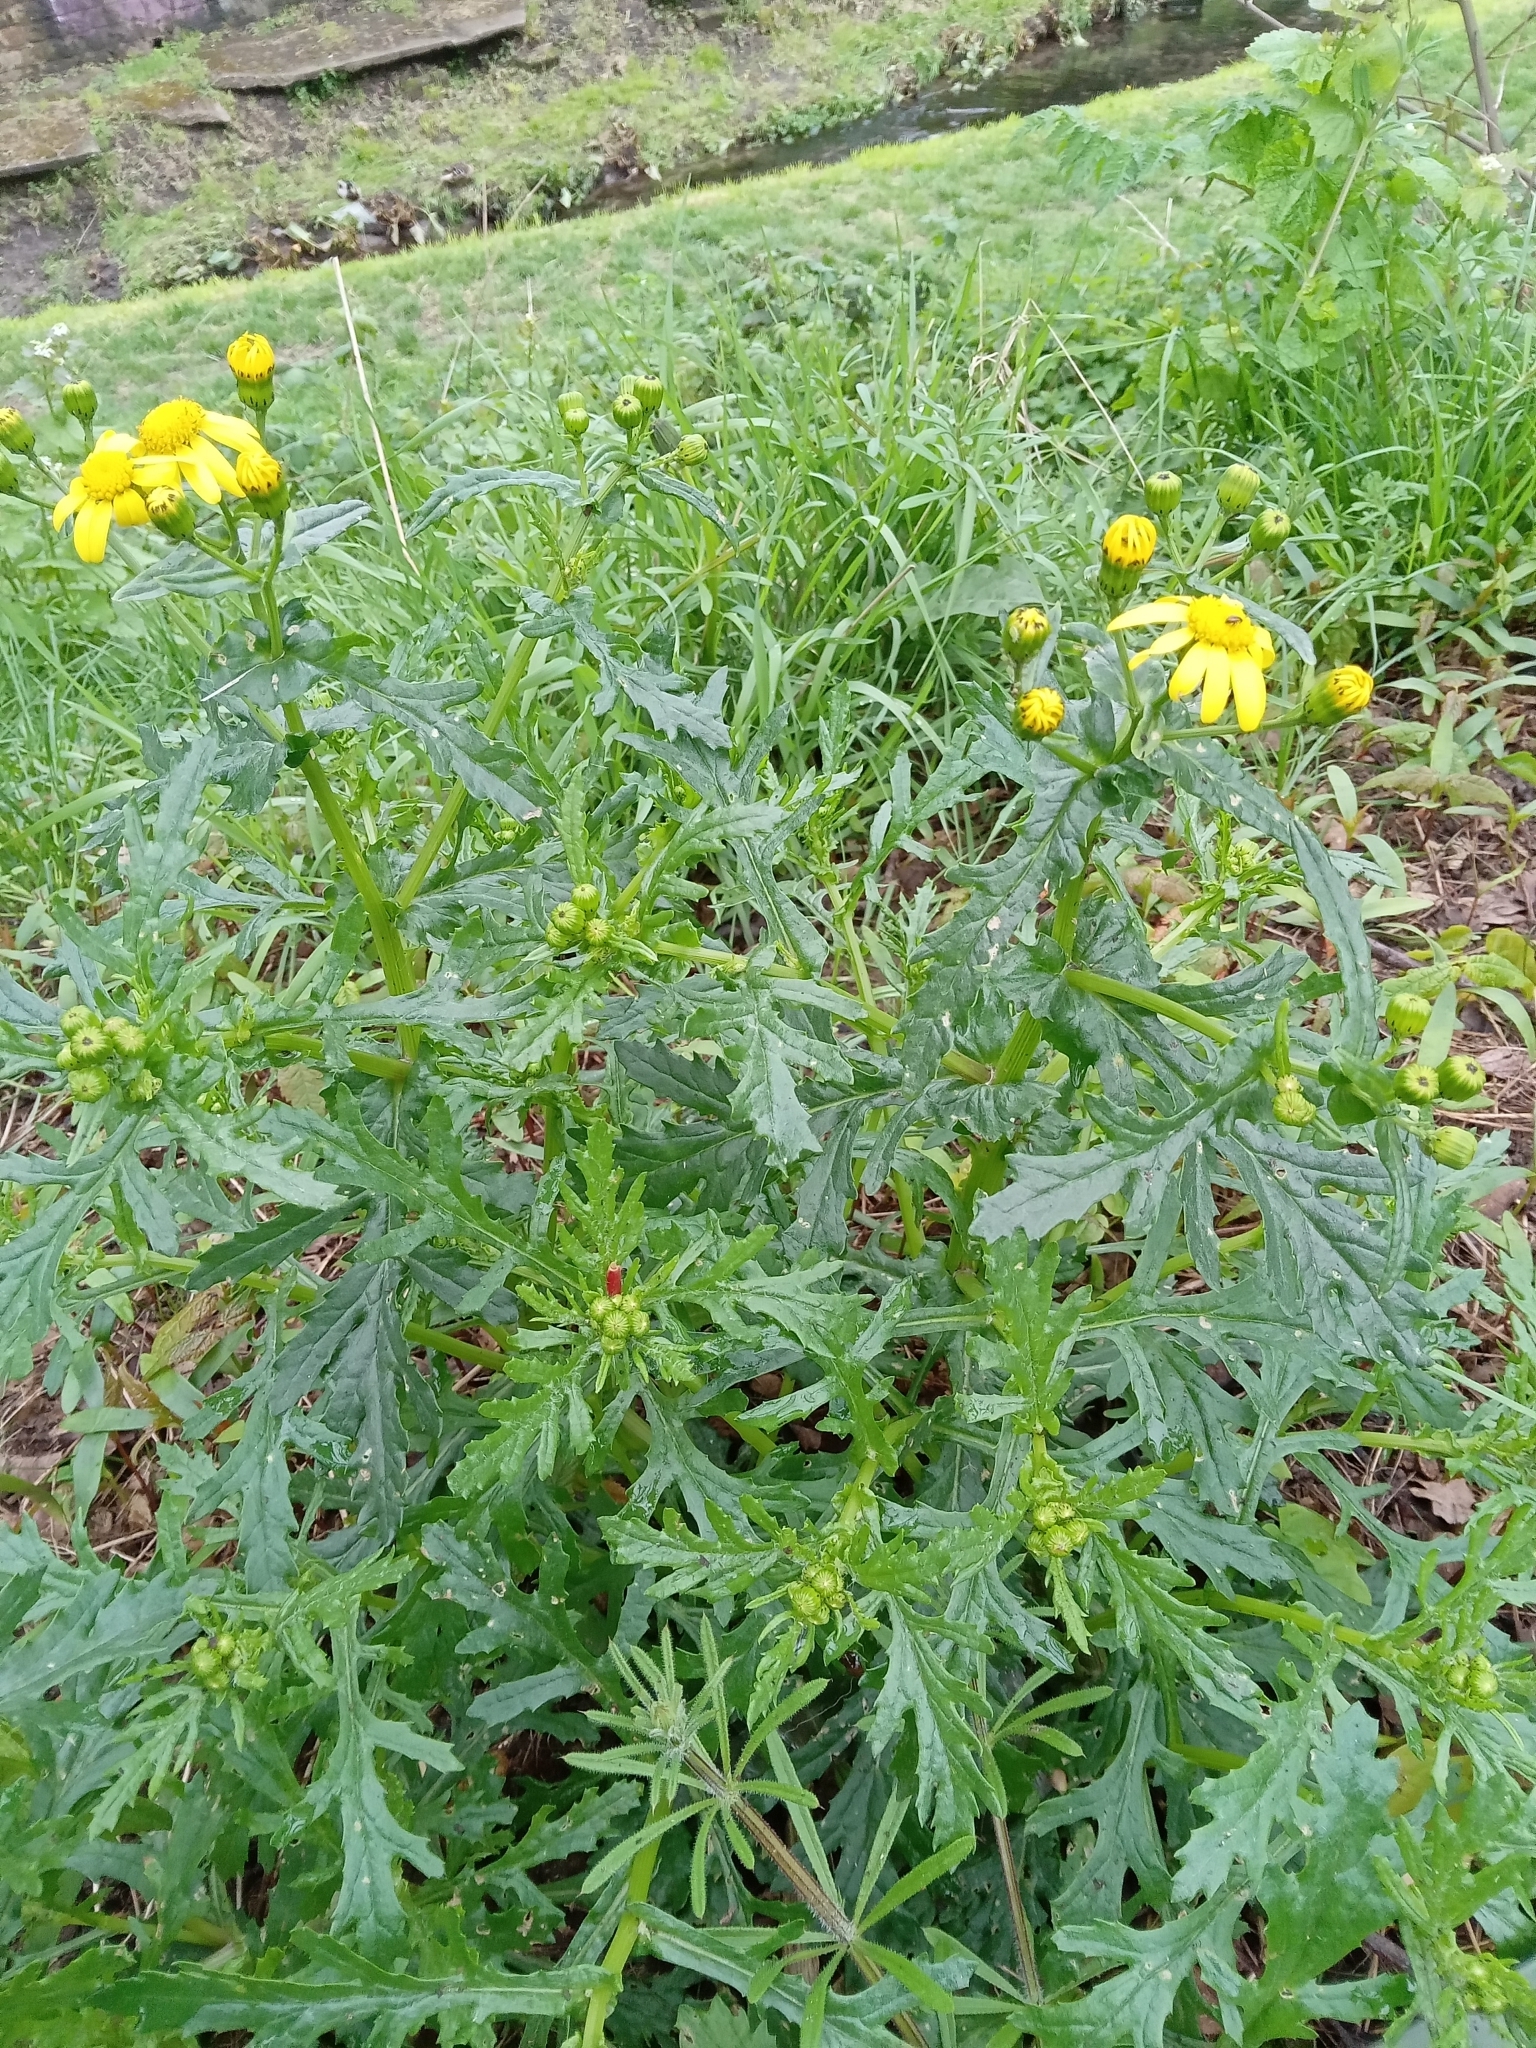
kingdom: Plantae
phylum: Tracheophyta
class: Magnoliopsida
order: Asterales
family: Asteraceae
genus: Senecio
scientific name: Senecio squalidus
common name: Oxford ragwort
